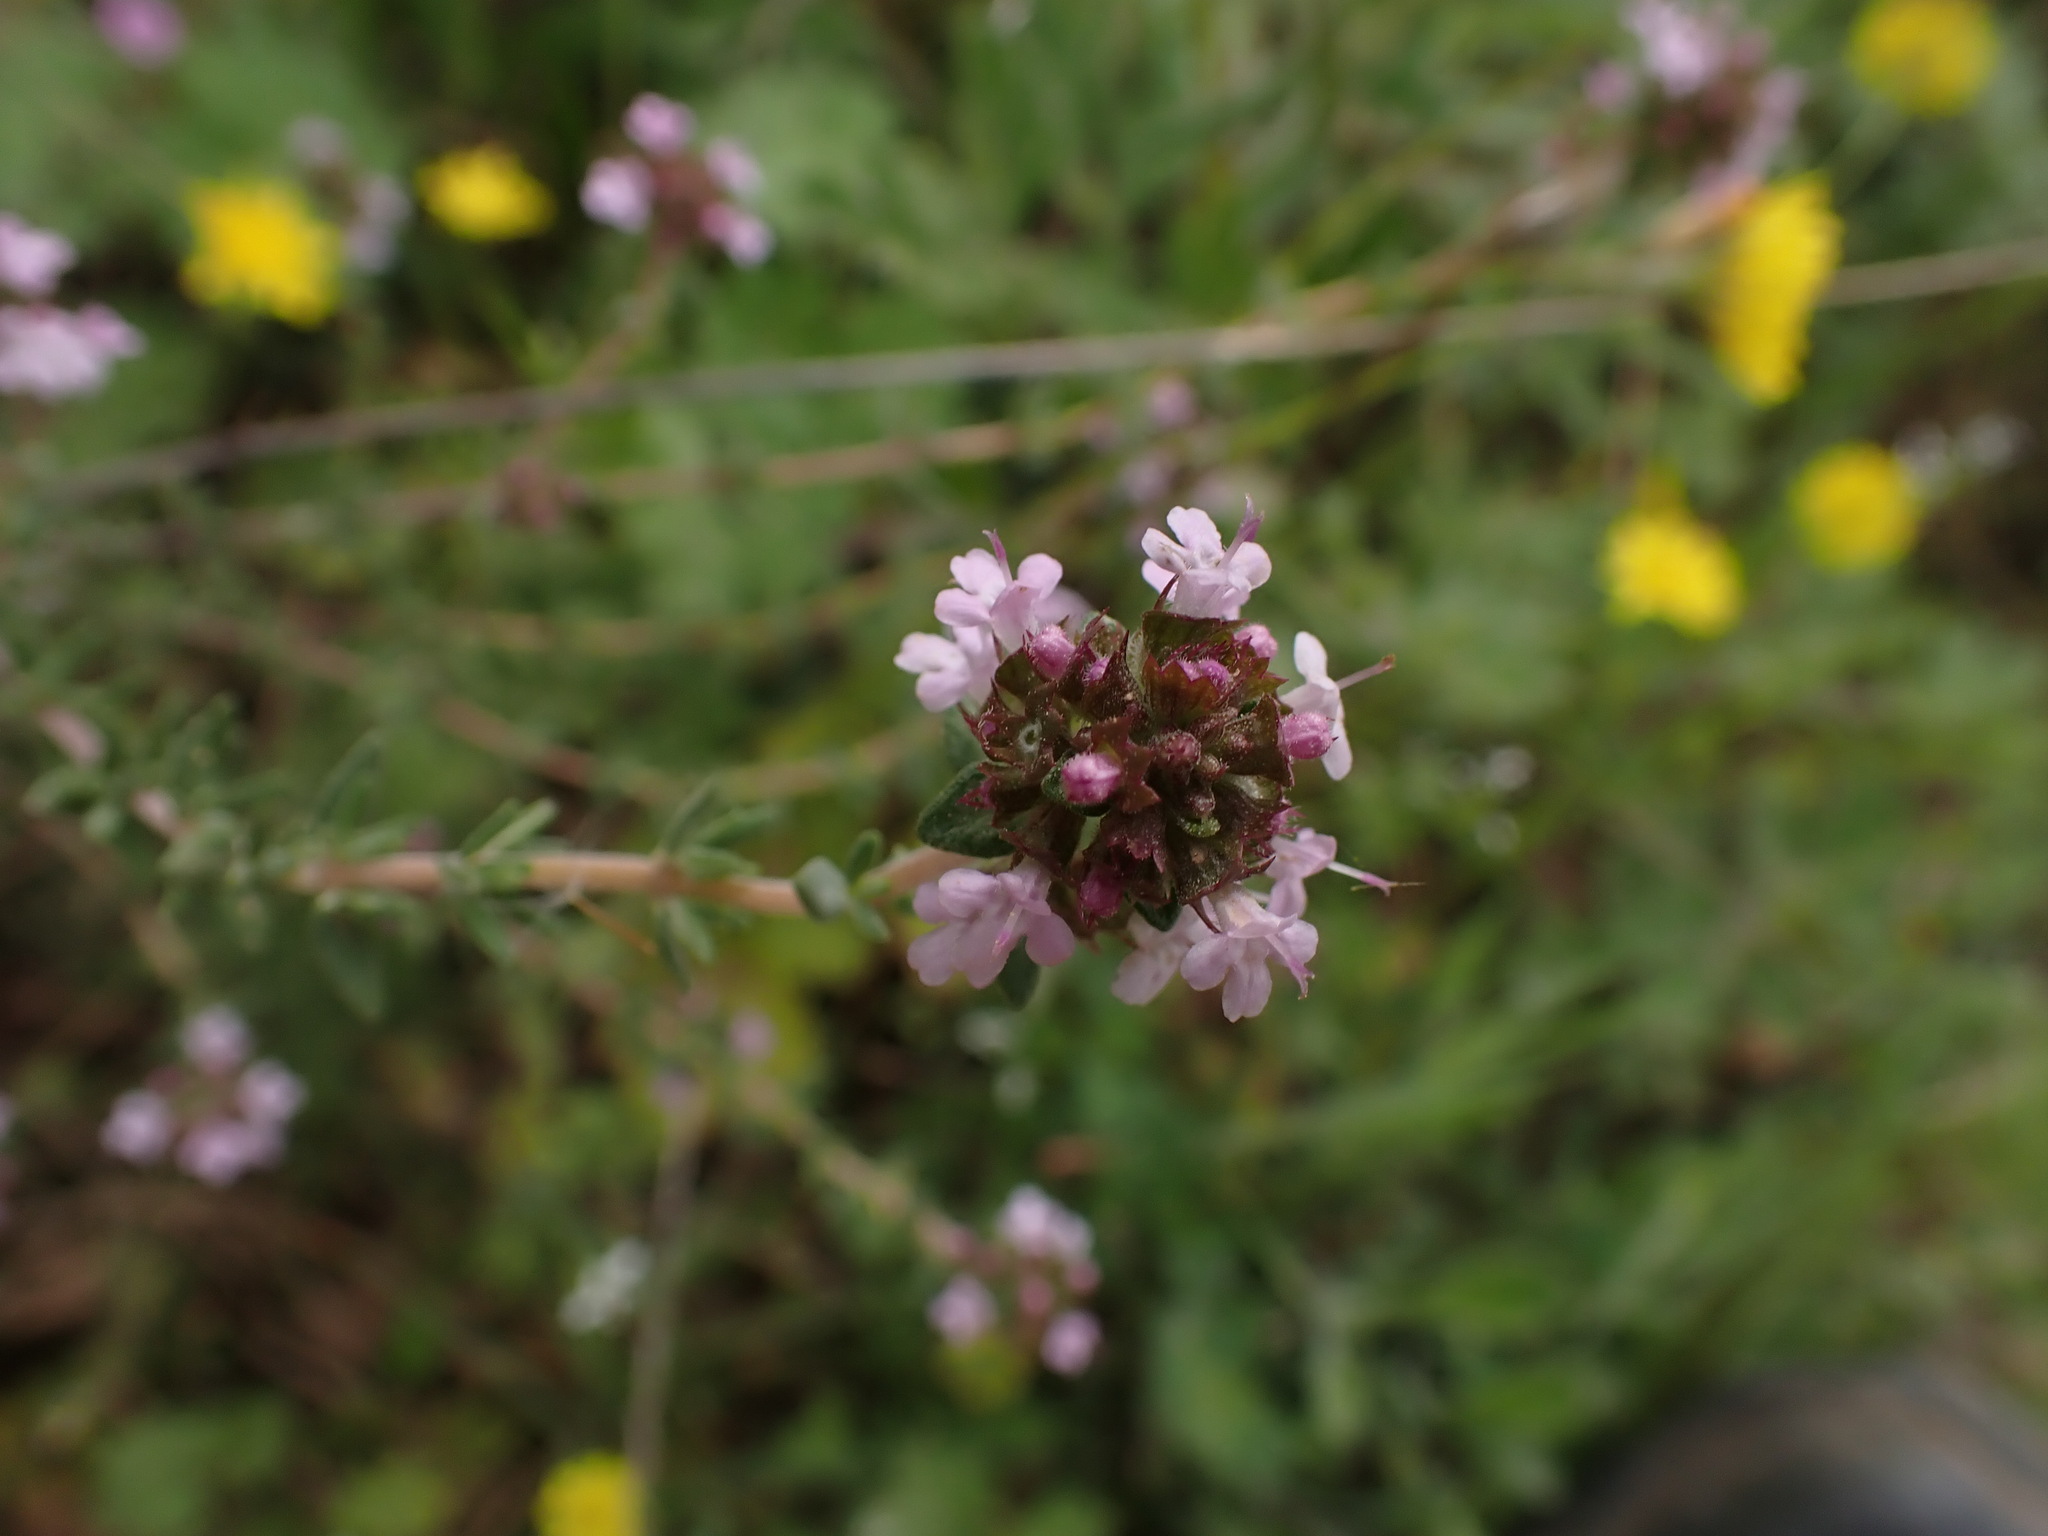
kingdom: Plantae
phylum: Tracheophyta
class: Magnoliopsida
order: Lamiales
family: Lamiaceae
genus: Thymus
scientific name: Thymus vulgaris
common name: Garden thyme
